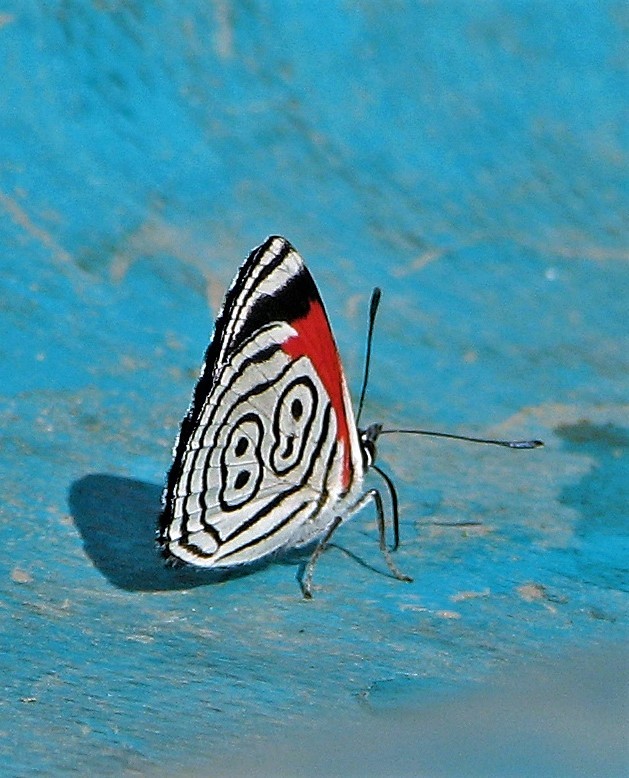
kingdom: Animalia
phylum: Arthropoda
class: Insecta
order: Lepidoptera
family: Nymphalidae
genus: Diaethria
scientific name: Diaethria clymena
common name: Widespread eighty-eight
